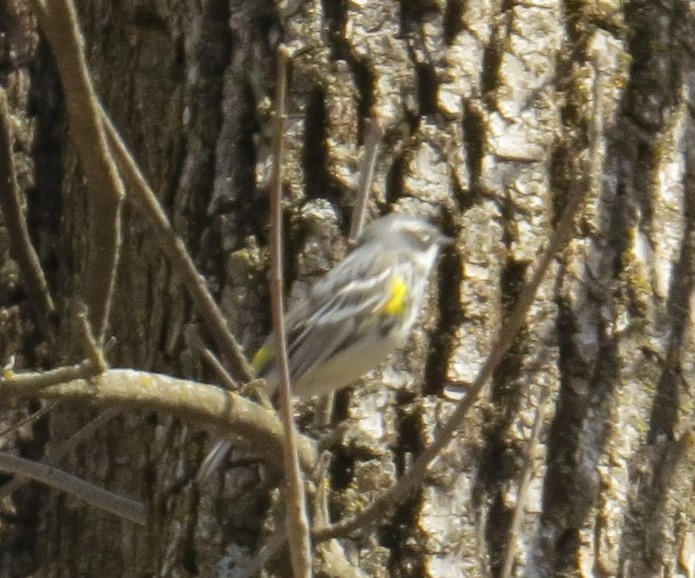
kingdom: Animalia
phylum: Chordata
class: Aves
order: Passeriformes
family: Parulidae
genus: Setophaga
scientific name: Setophaga coronata
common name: Myrtle warbler
